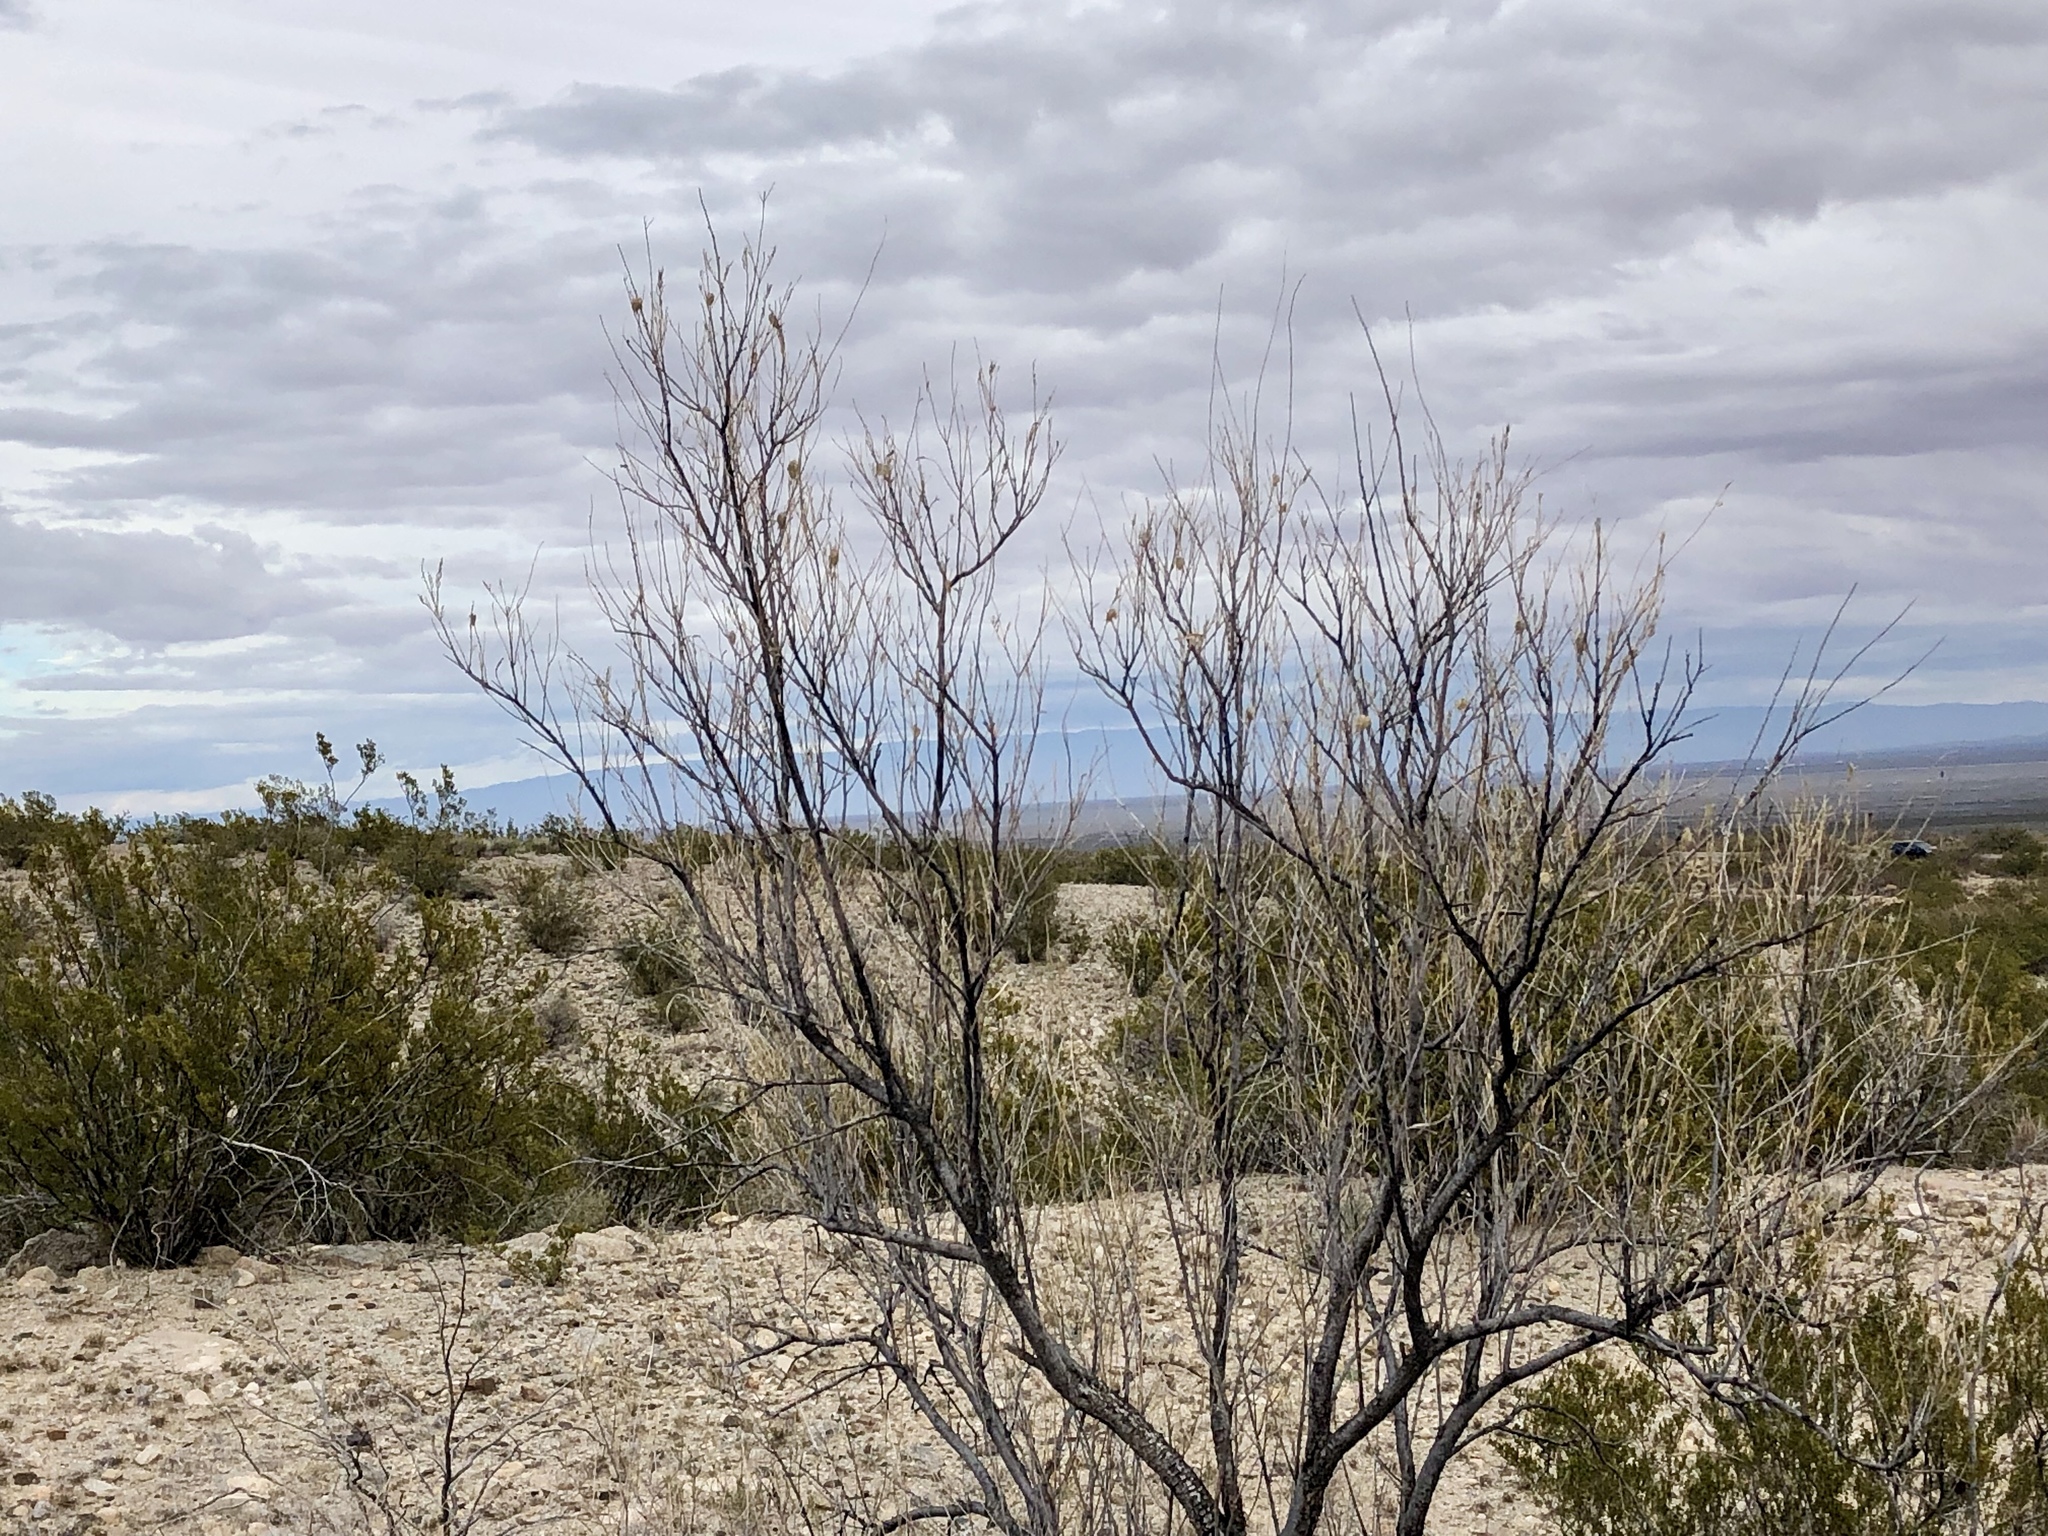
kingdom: Plantae
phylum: Tracheophyta
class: Magnoliopsida
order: Lamiales
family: Bignoniaceae
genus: Chilopsis
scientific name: Chilopsis linearis
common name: Desert-willow
